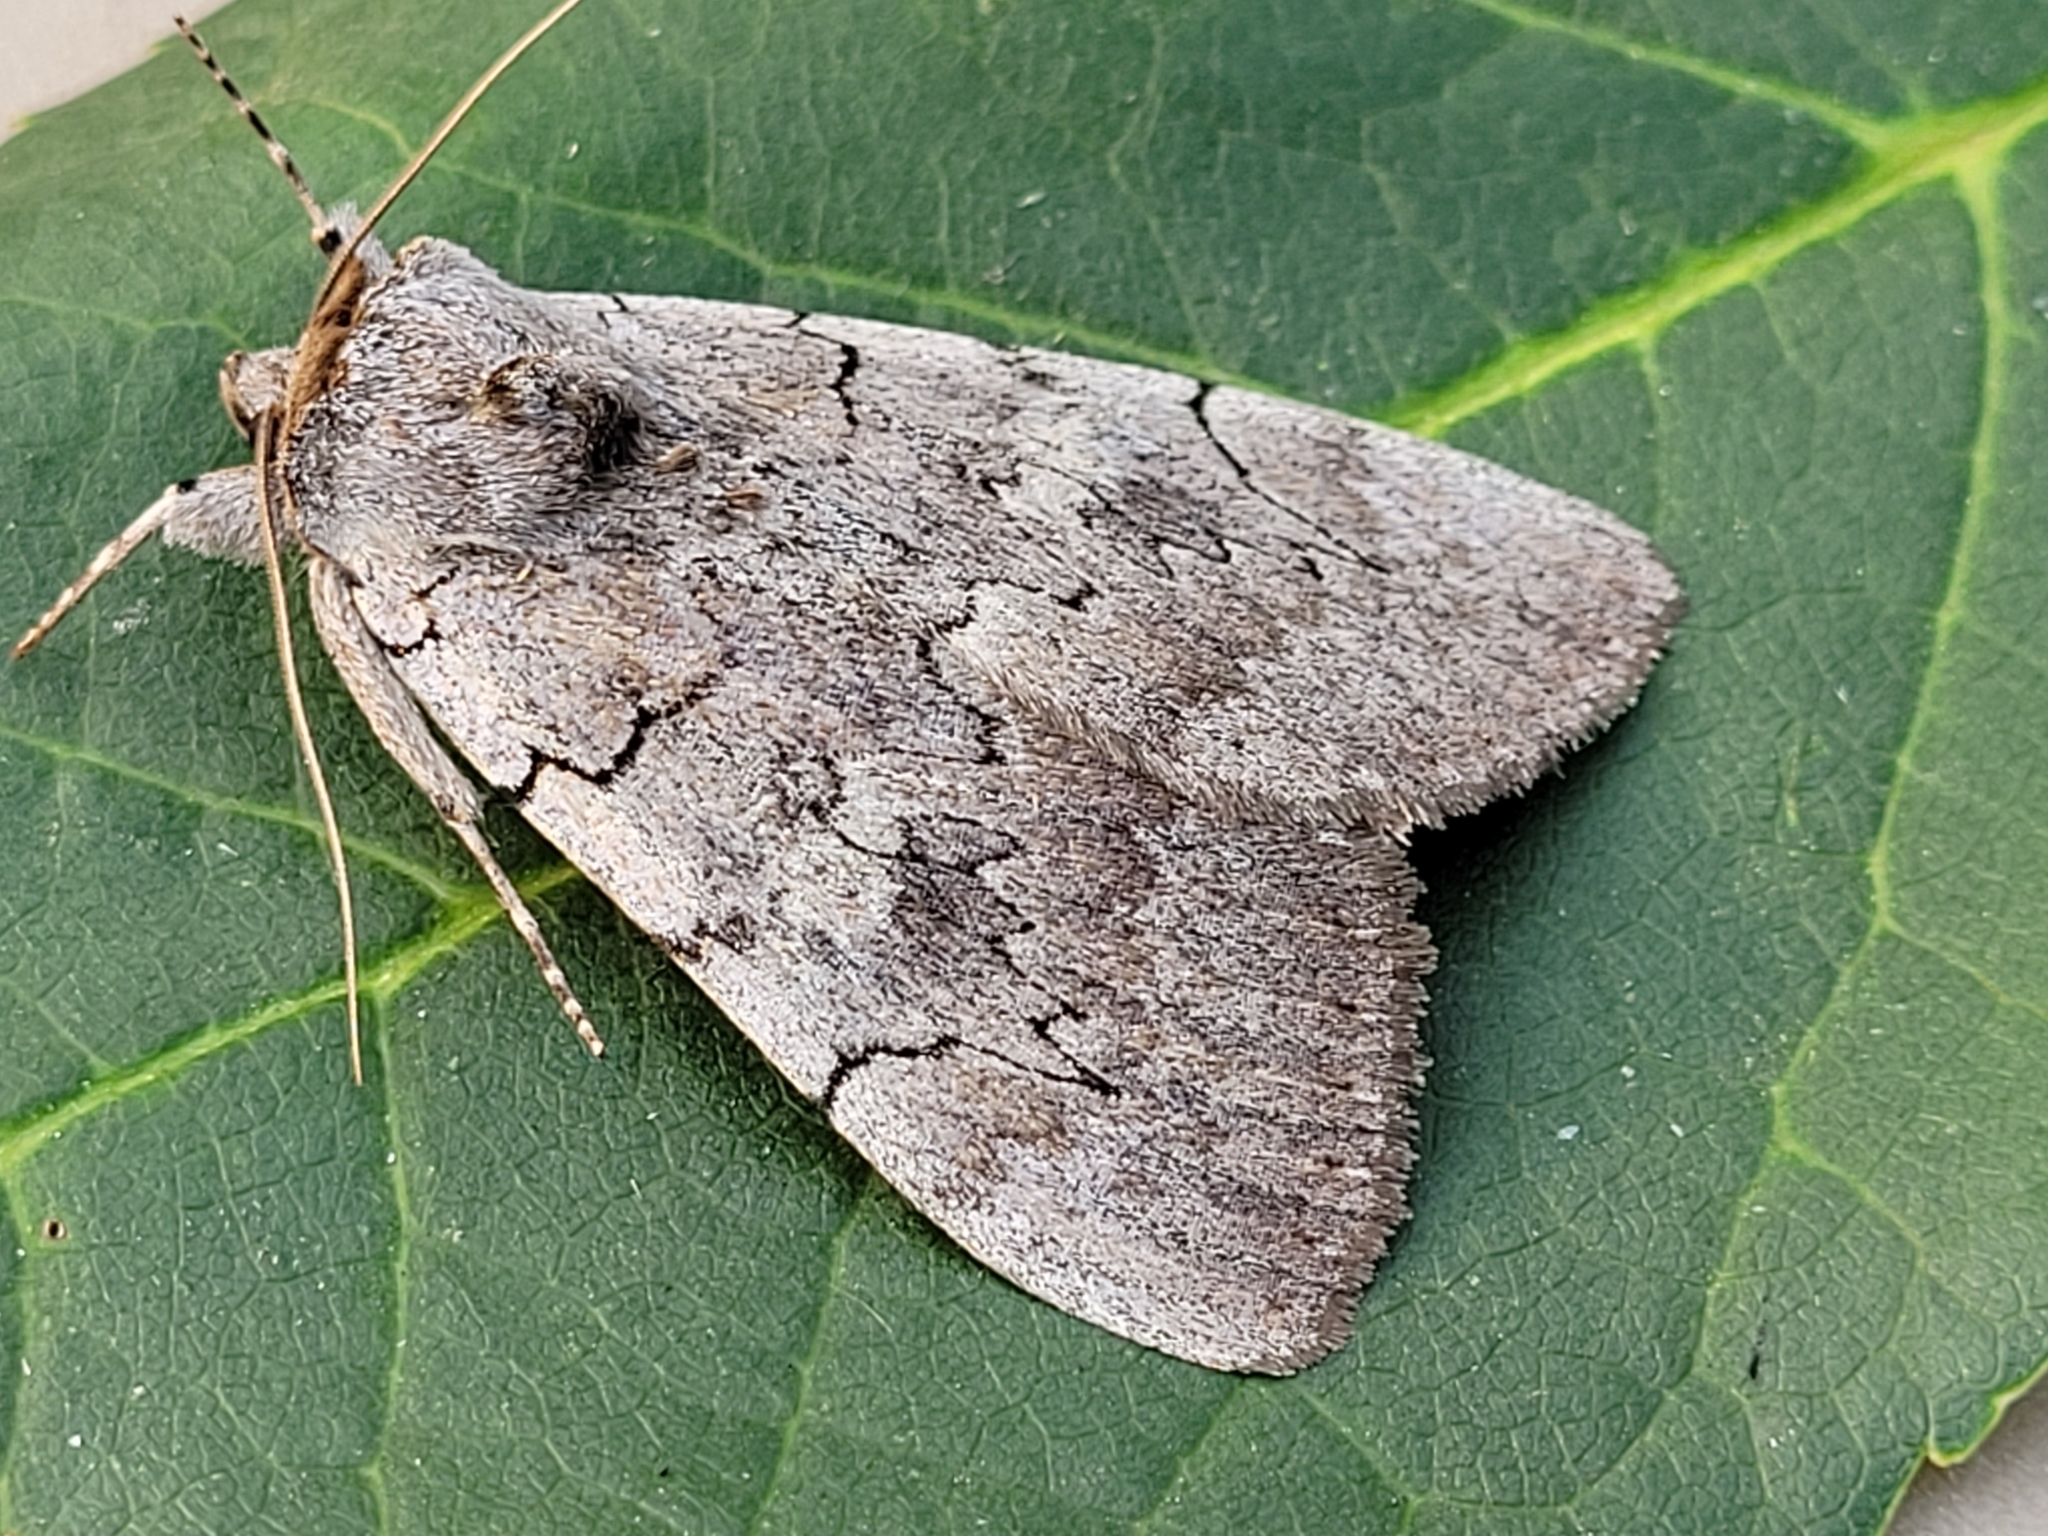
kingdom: Animalia
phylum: Arthropoda
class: Insecta
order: Lepidoptera
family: Erebidae
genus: Catocala
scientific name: Catocala concumbens
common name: Pink underwing
